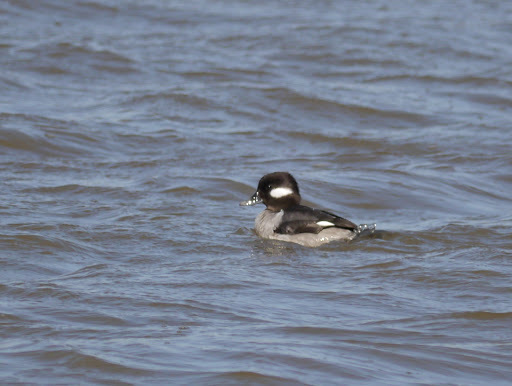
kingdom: Animalia
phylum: Chordata
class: Aves
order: Anseriformes
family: Anatidae
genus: Bucephala
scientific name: Bucephala albeola
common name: Bufflehead
